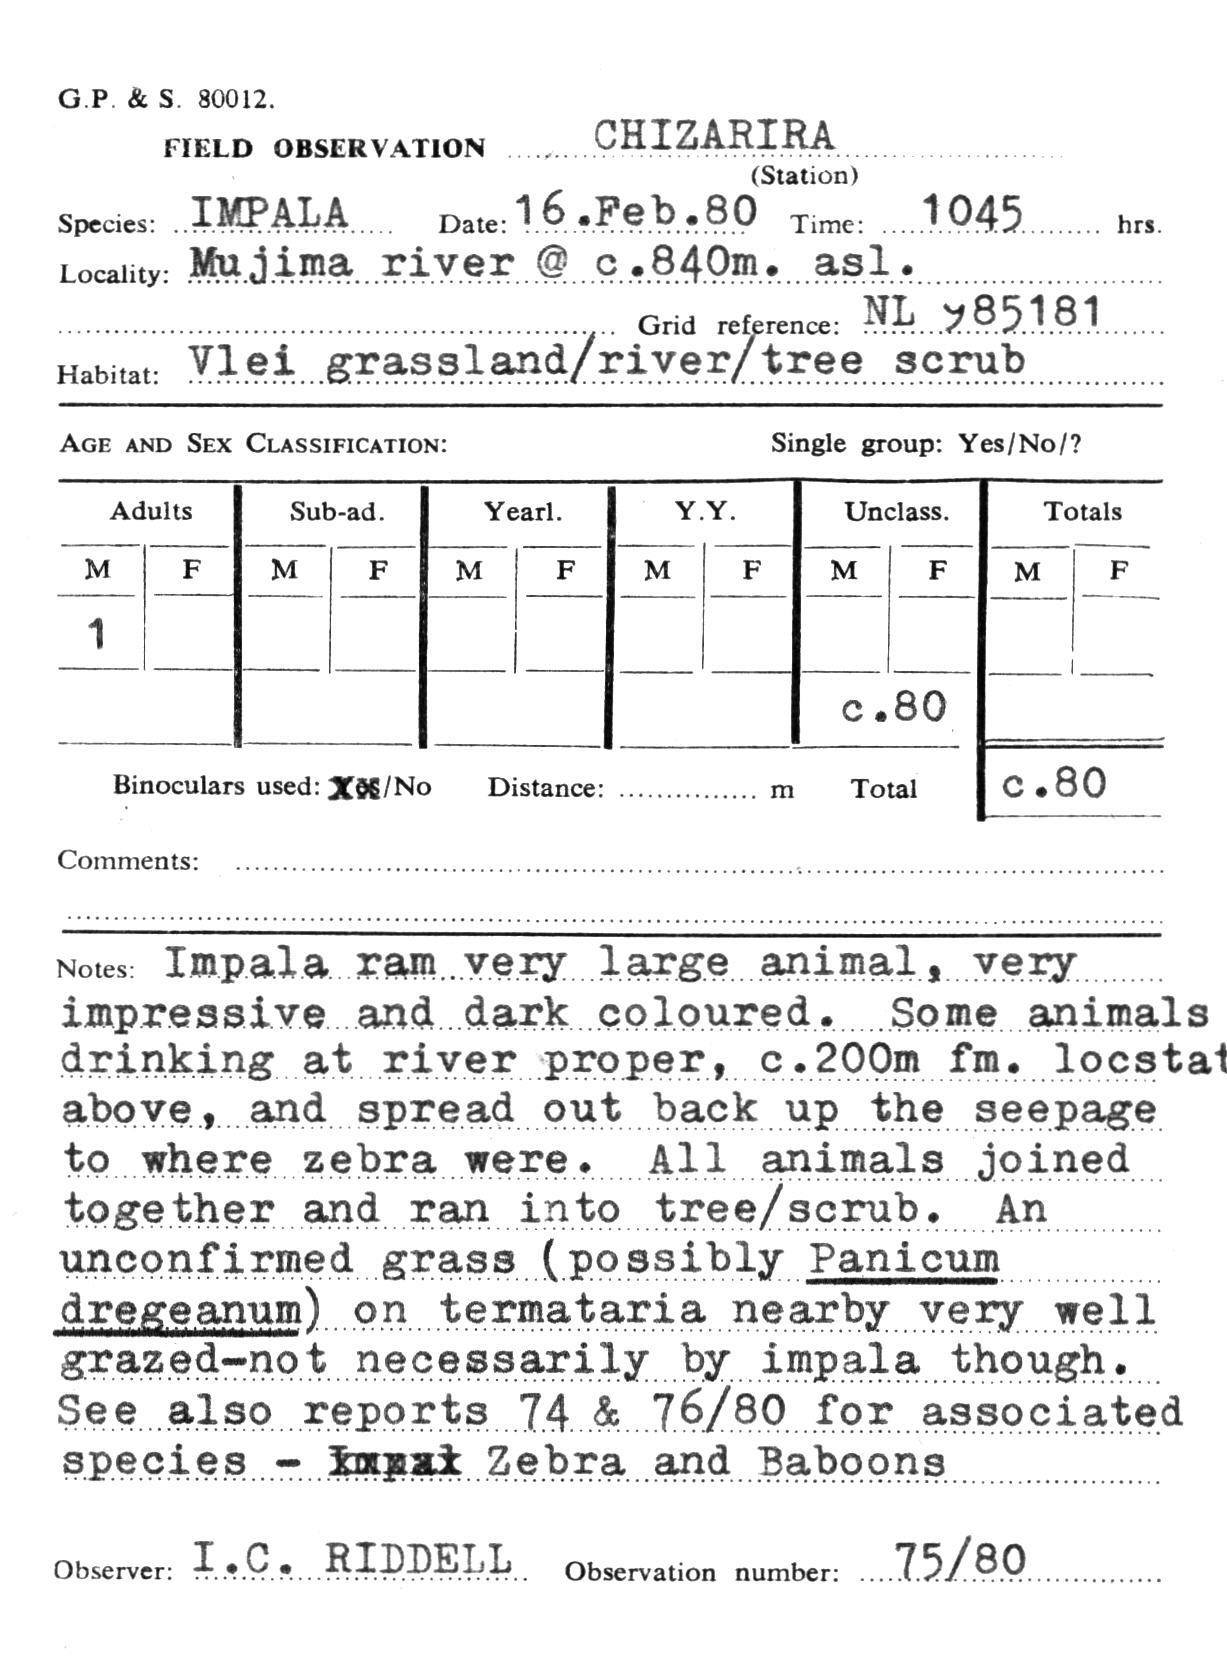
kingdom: Animalia
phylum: Chordata
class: Mammalia
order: Artiodactyla
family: Bovidae
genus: Aepyceros
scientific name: Aepyceros melampus
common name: Impala
